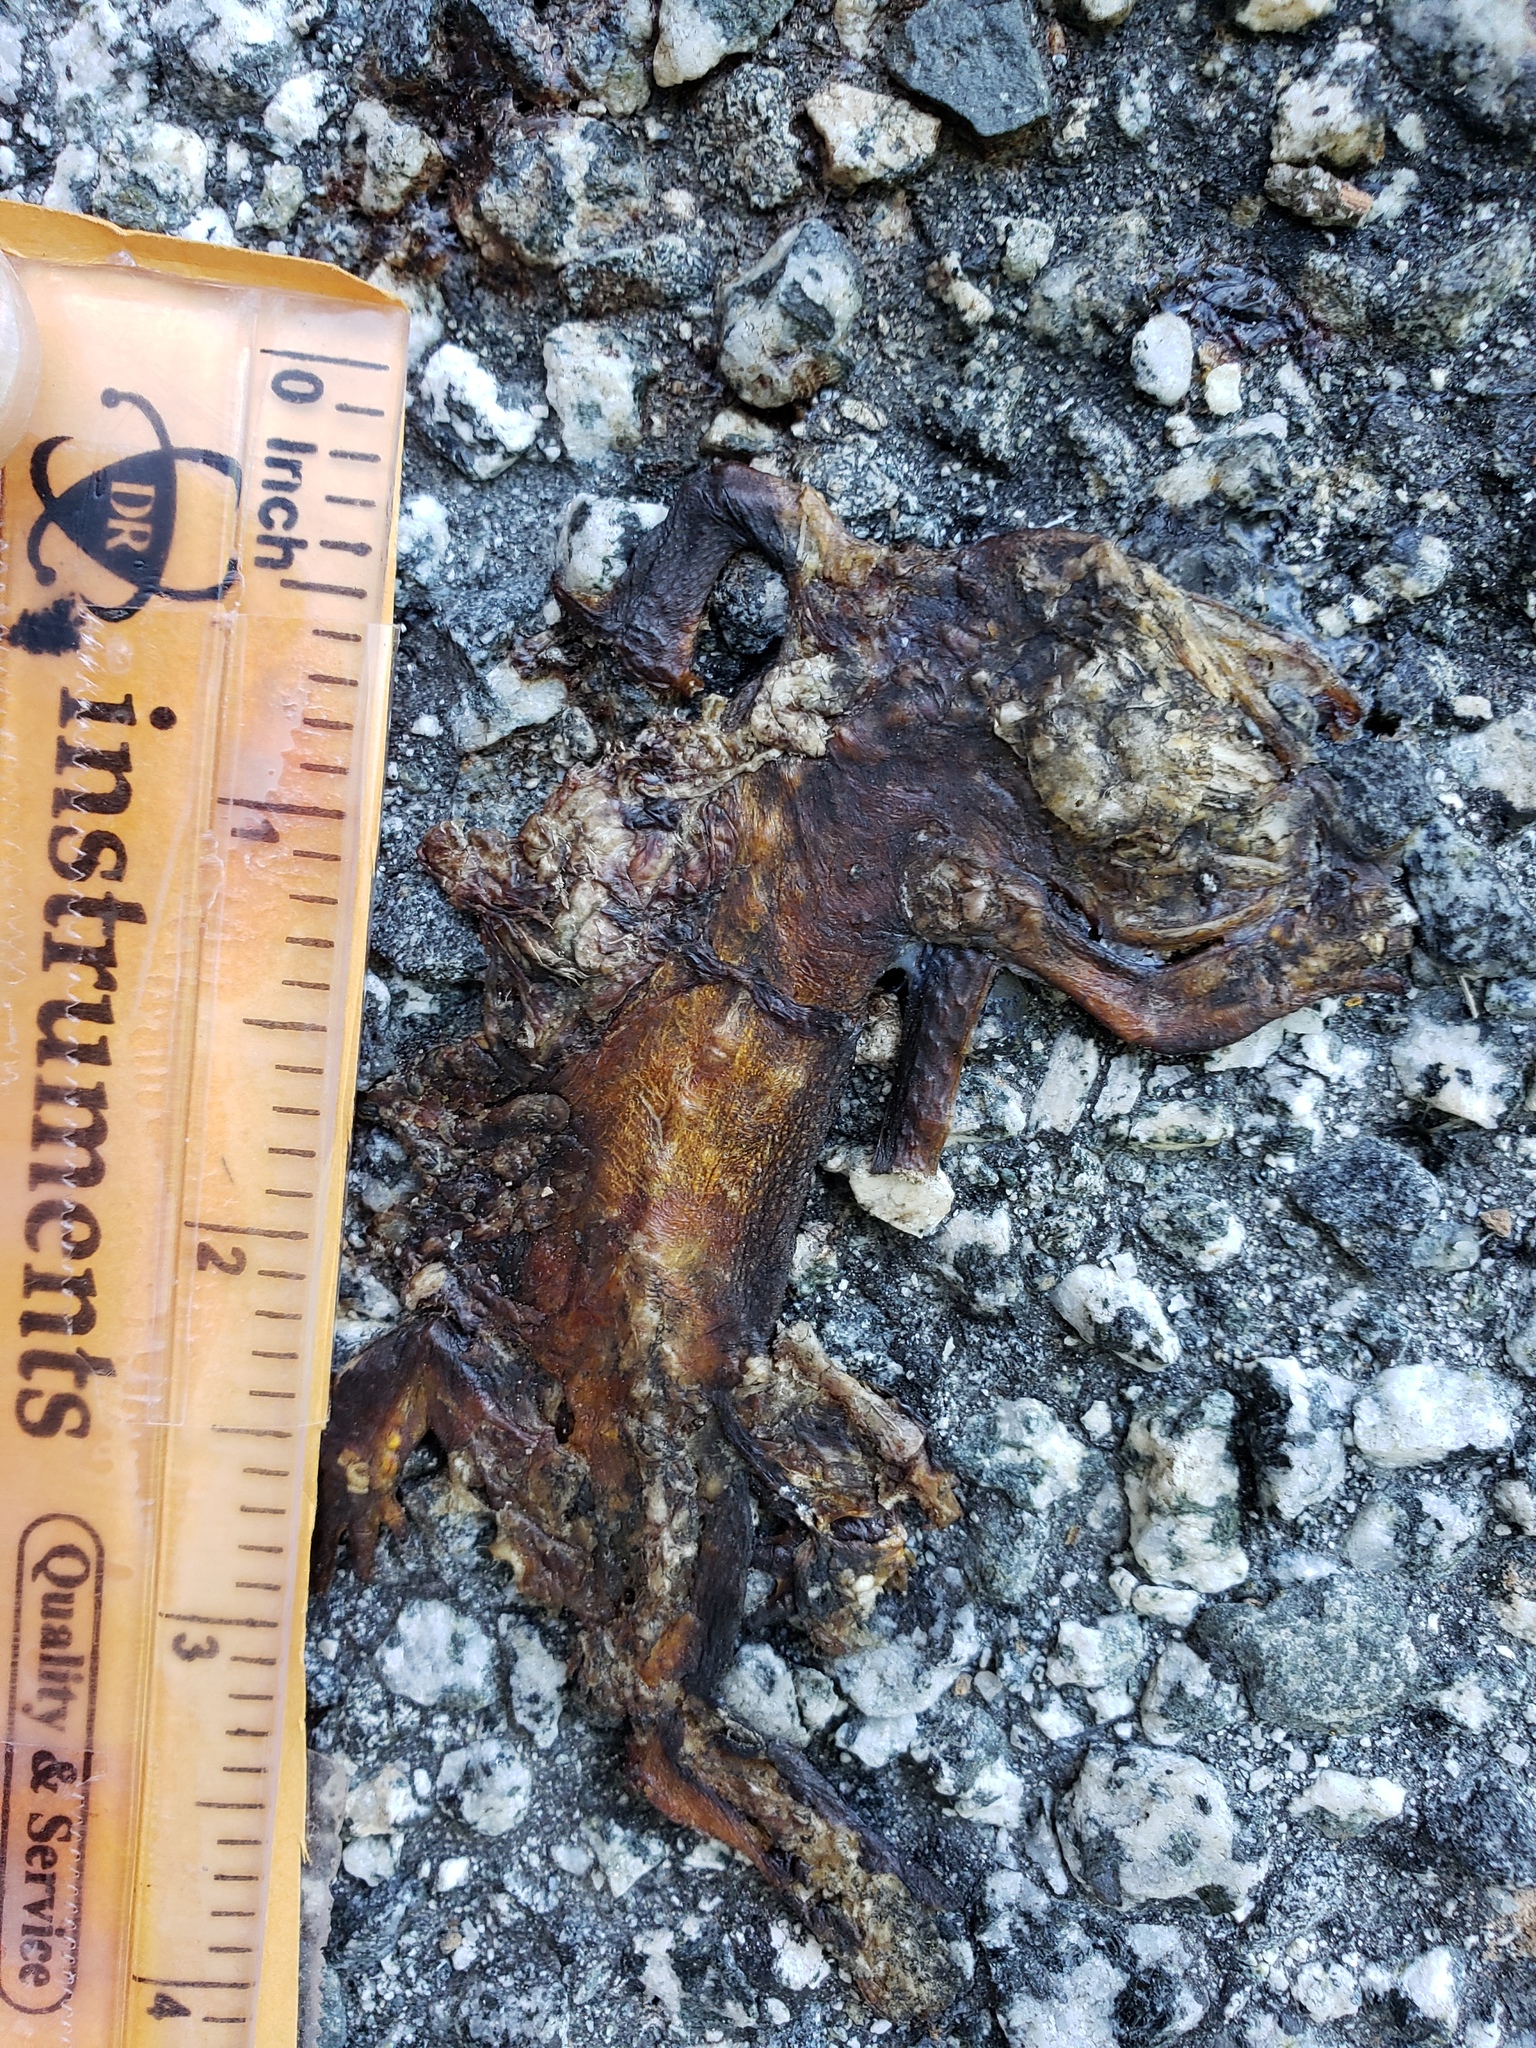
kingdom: Animalia
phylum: Chordata
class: Amphibia
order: Caudata
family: Salamandridae
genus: Taricha
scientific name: Taricha
